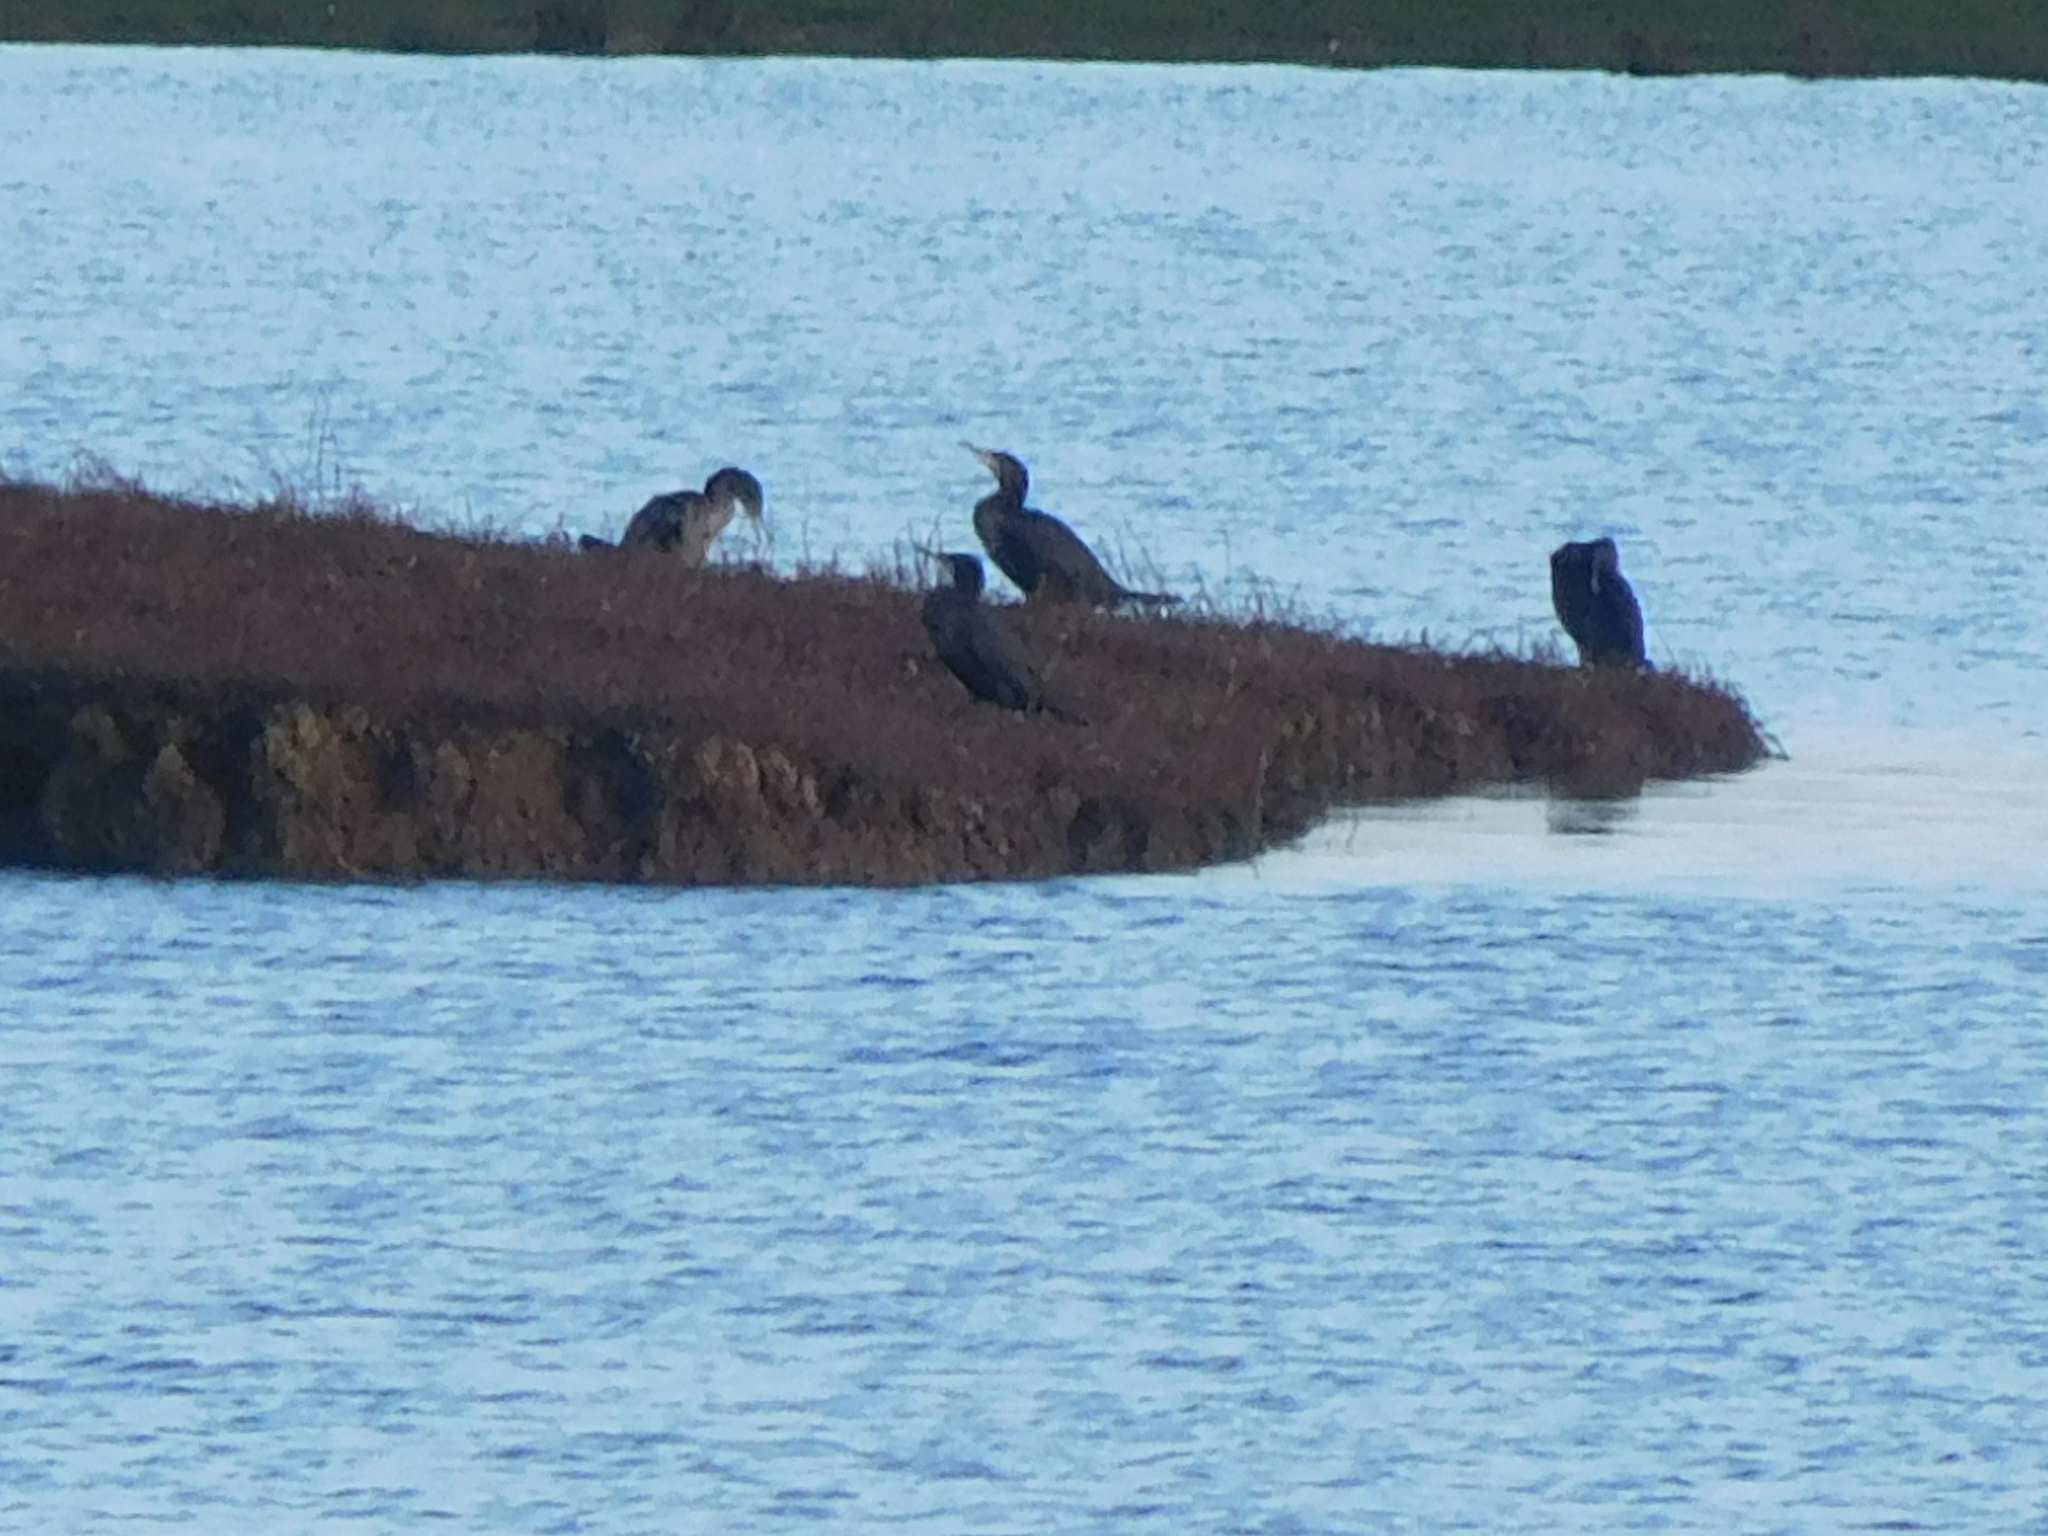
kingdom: Animalia
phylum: Chordata
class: Aves
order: Suliformes
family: Phalacrocoracidae
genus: Phalacrocorax
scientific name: Phalacrocorax carbo
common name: Great cormorant
